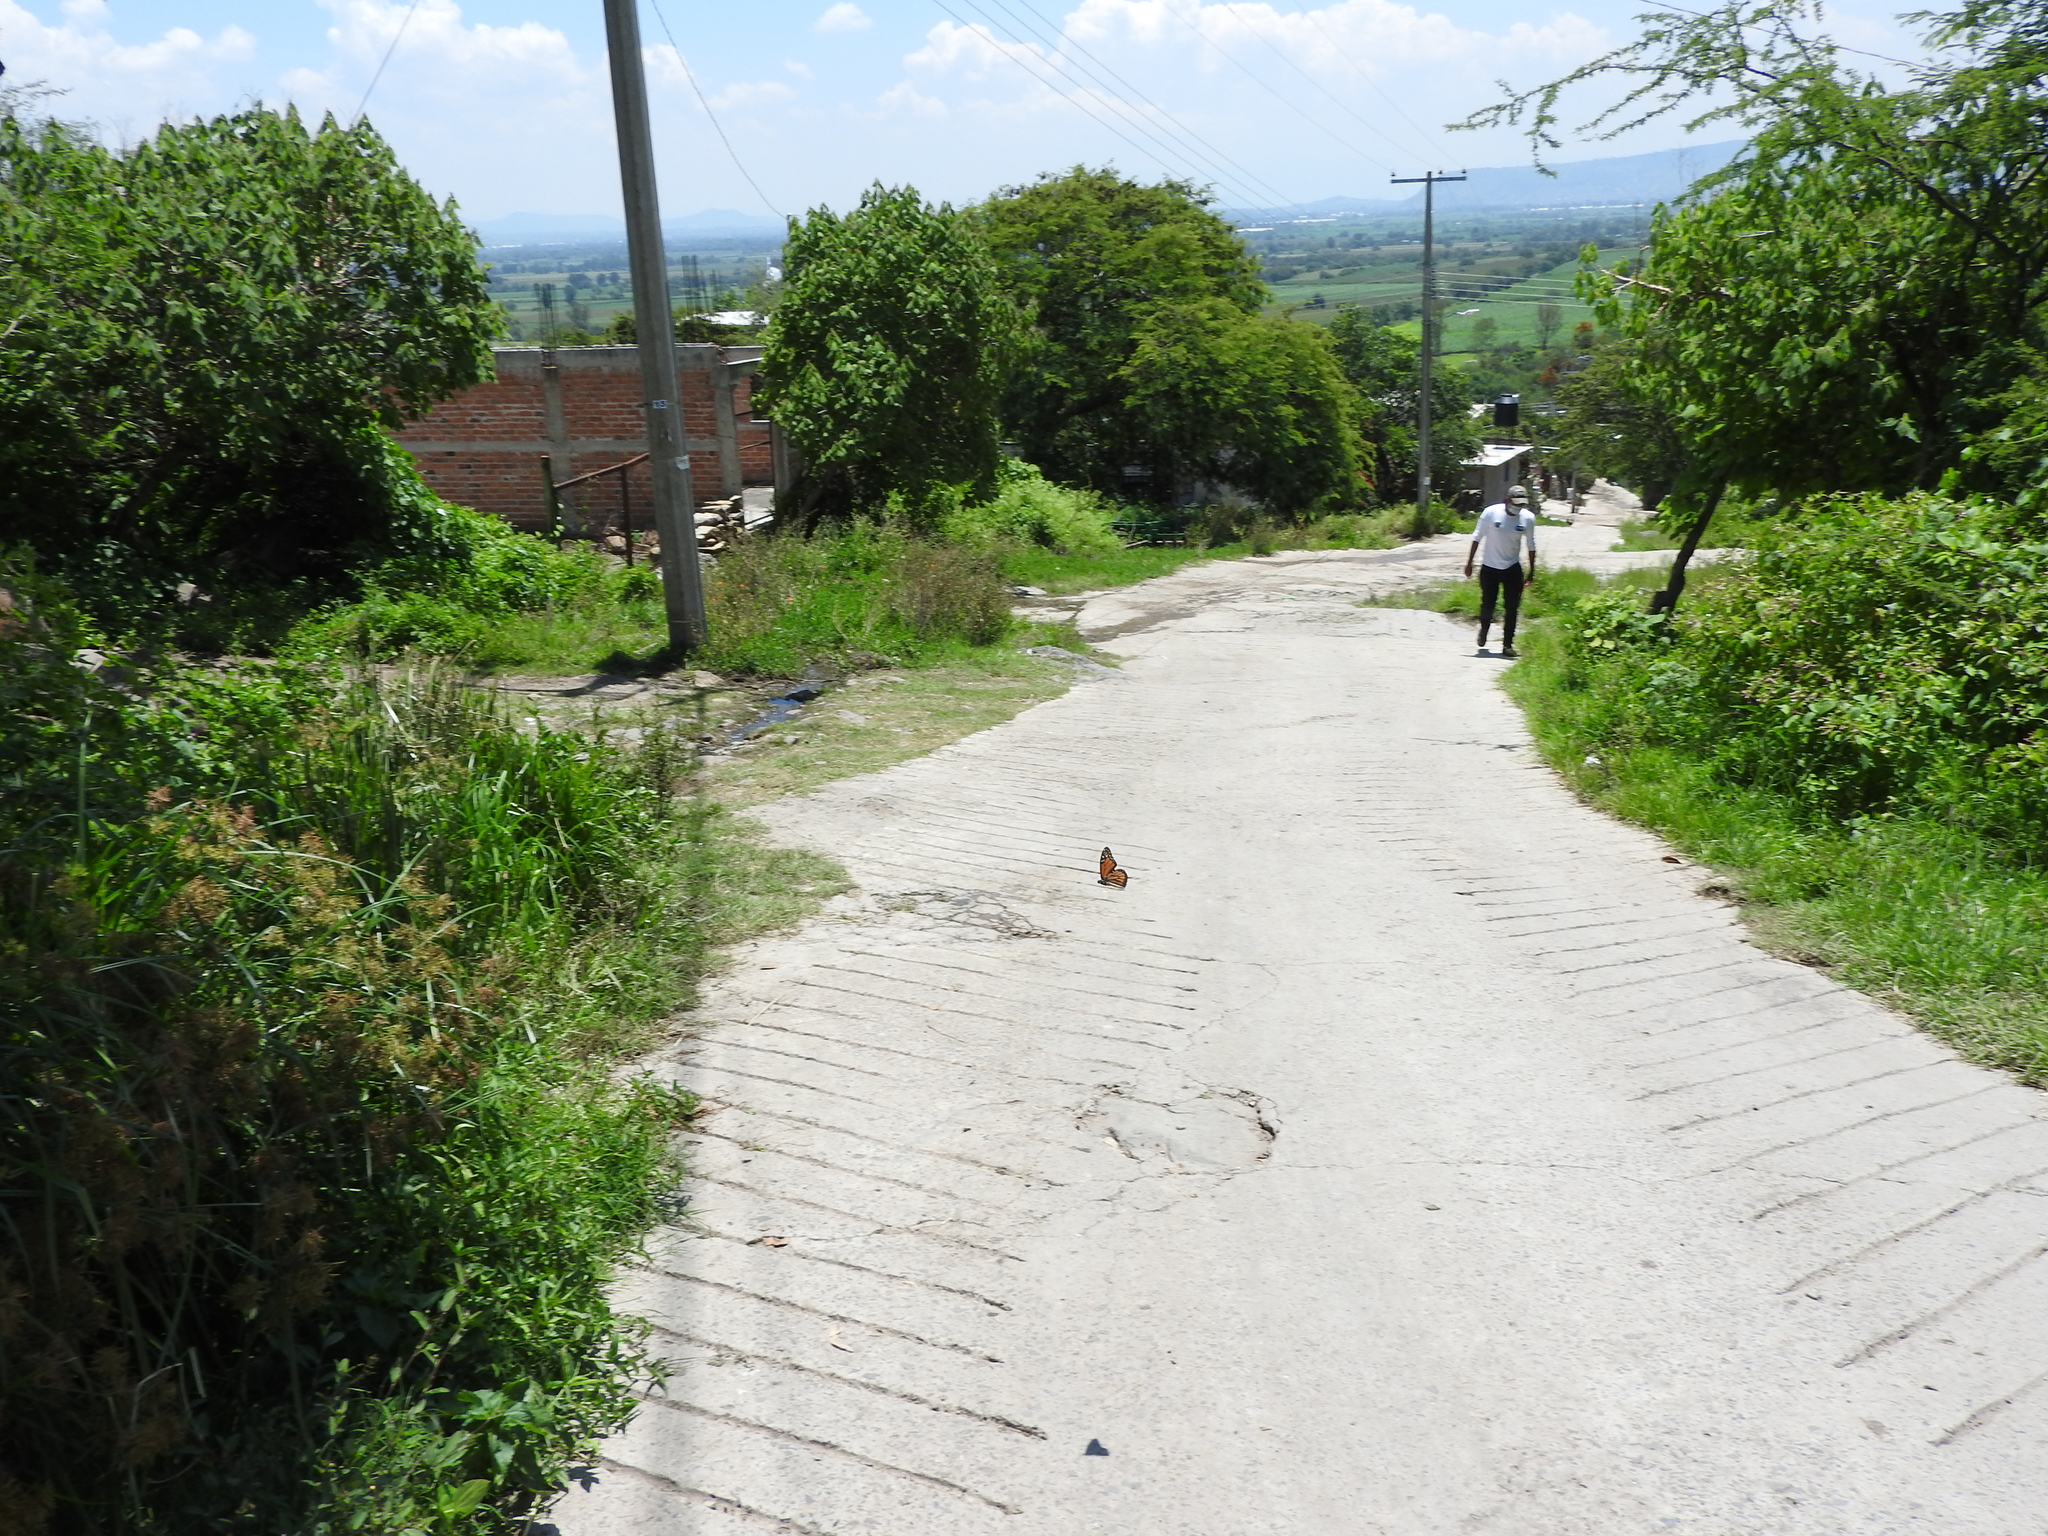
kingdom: Animalia
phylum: Arthropoda
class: Insecta
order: Lepidoptera
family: Nymphalidae
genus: Danaus
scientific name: Danaus plexippus
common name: Monarch
